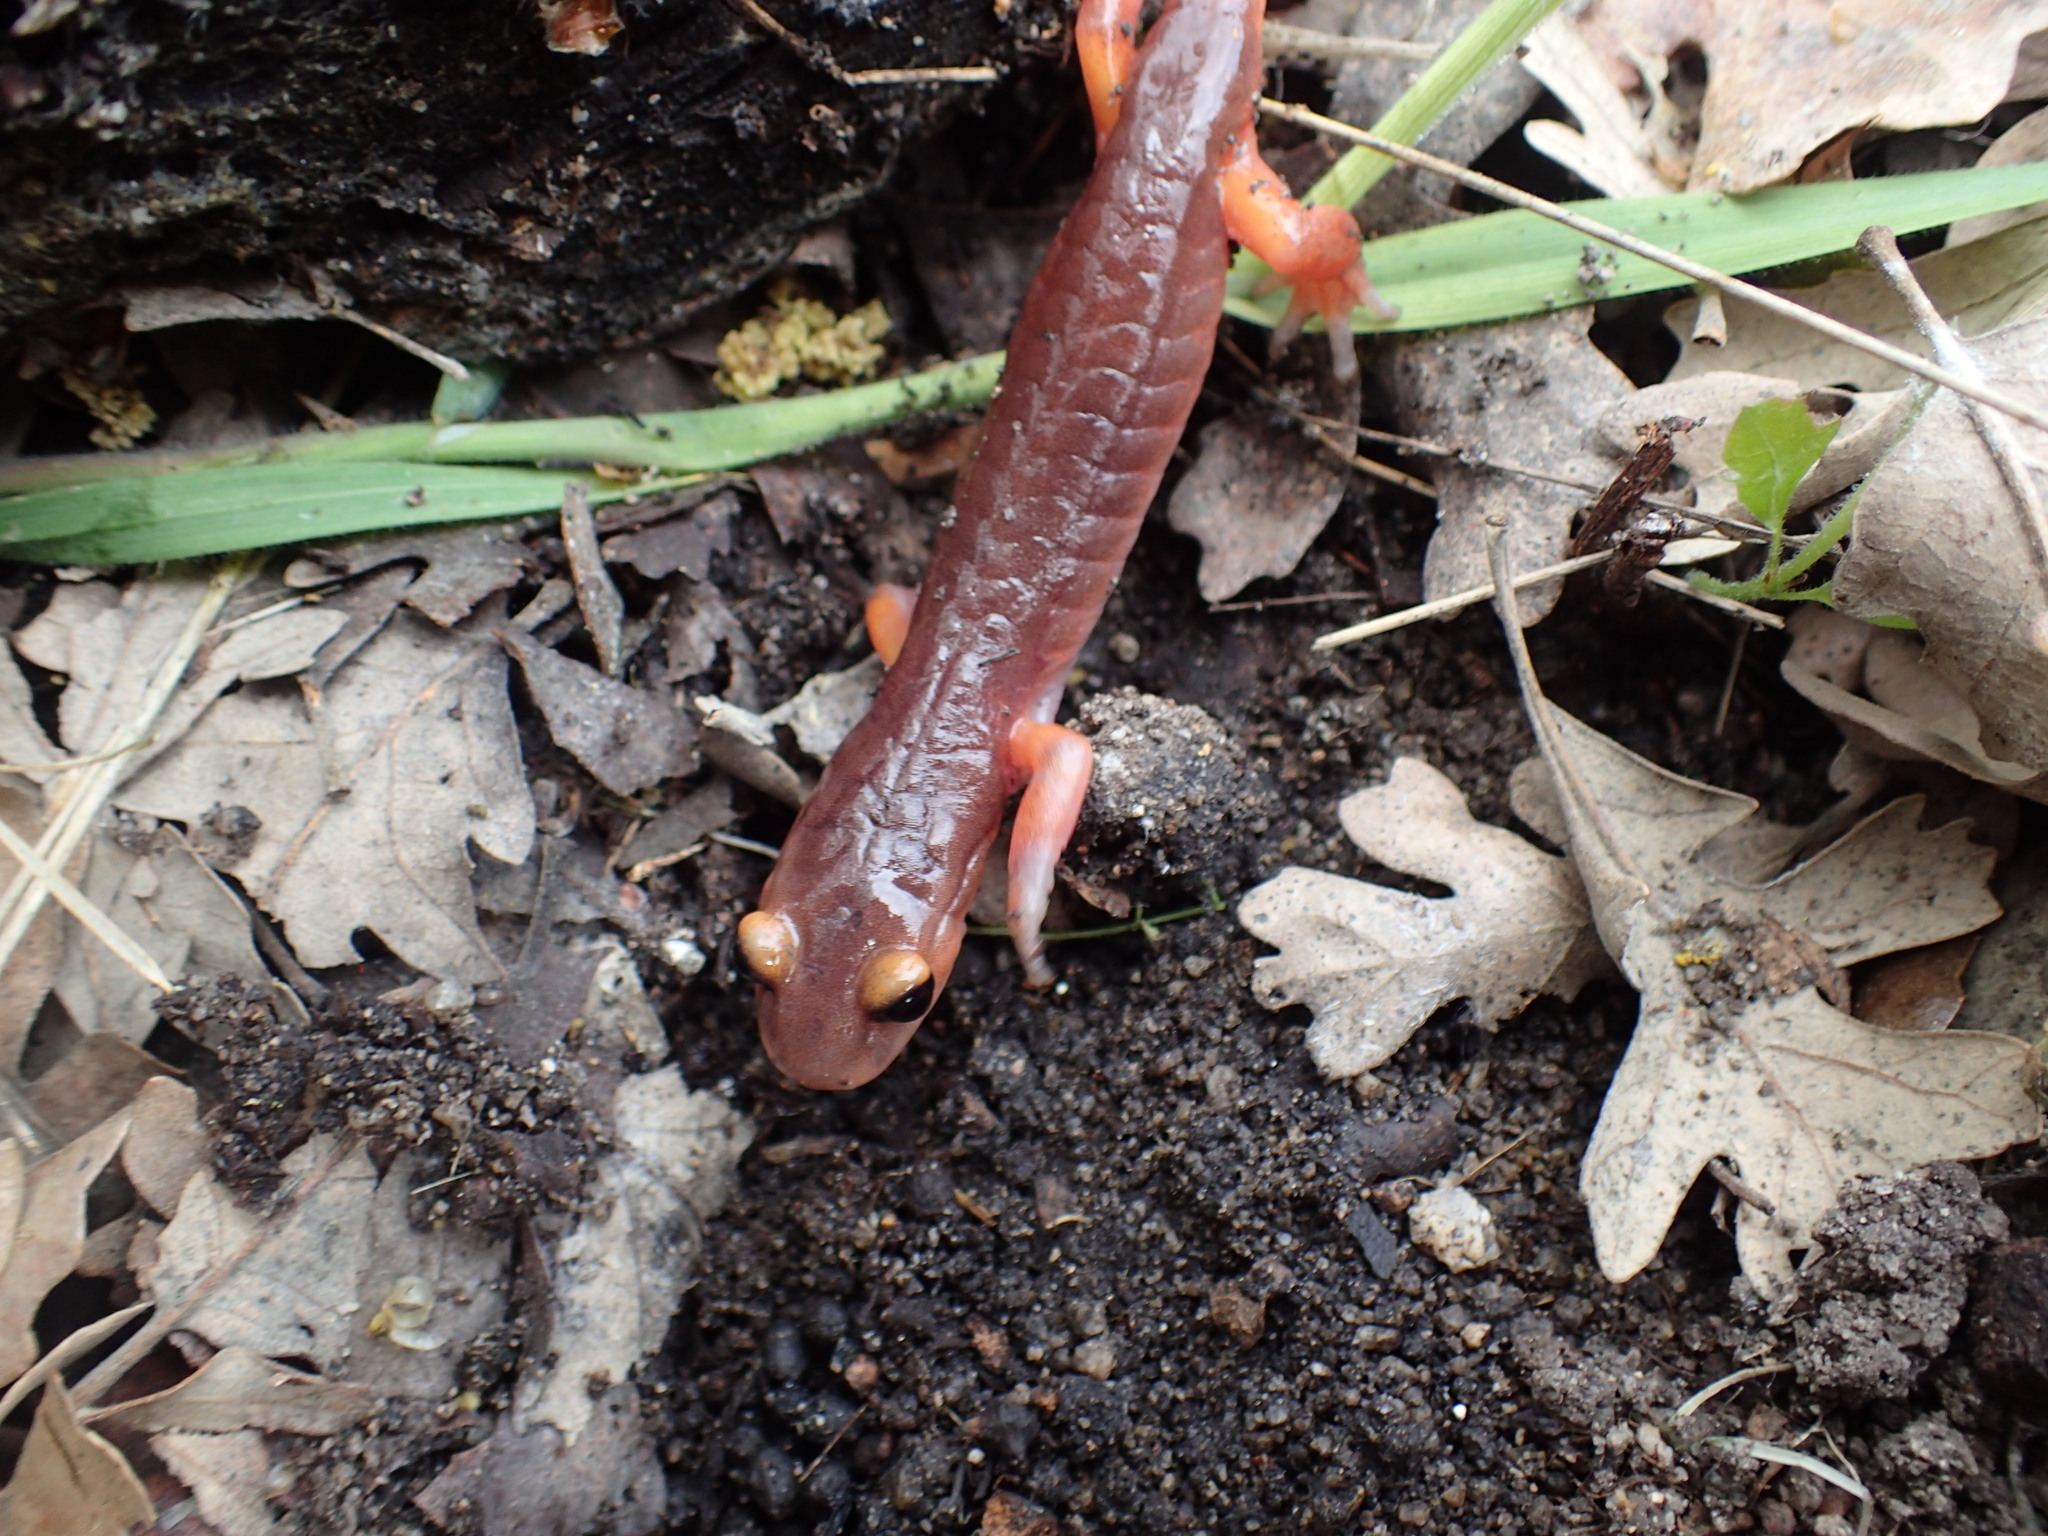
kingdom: Animalia
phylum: Chordata
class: Amphibia
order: Caudata
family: Plethodontidae
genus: Ensatina
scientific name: Ensatina eschscholtzii
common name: Ensatina
